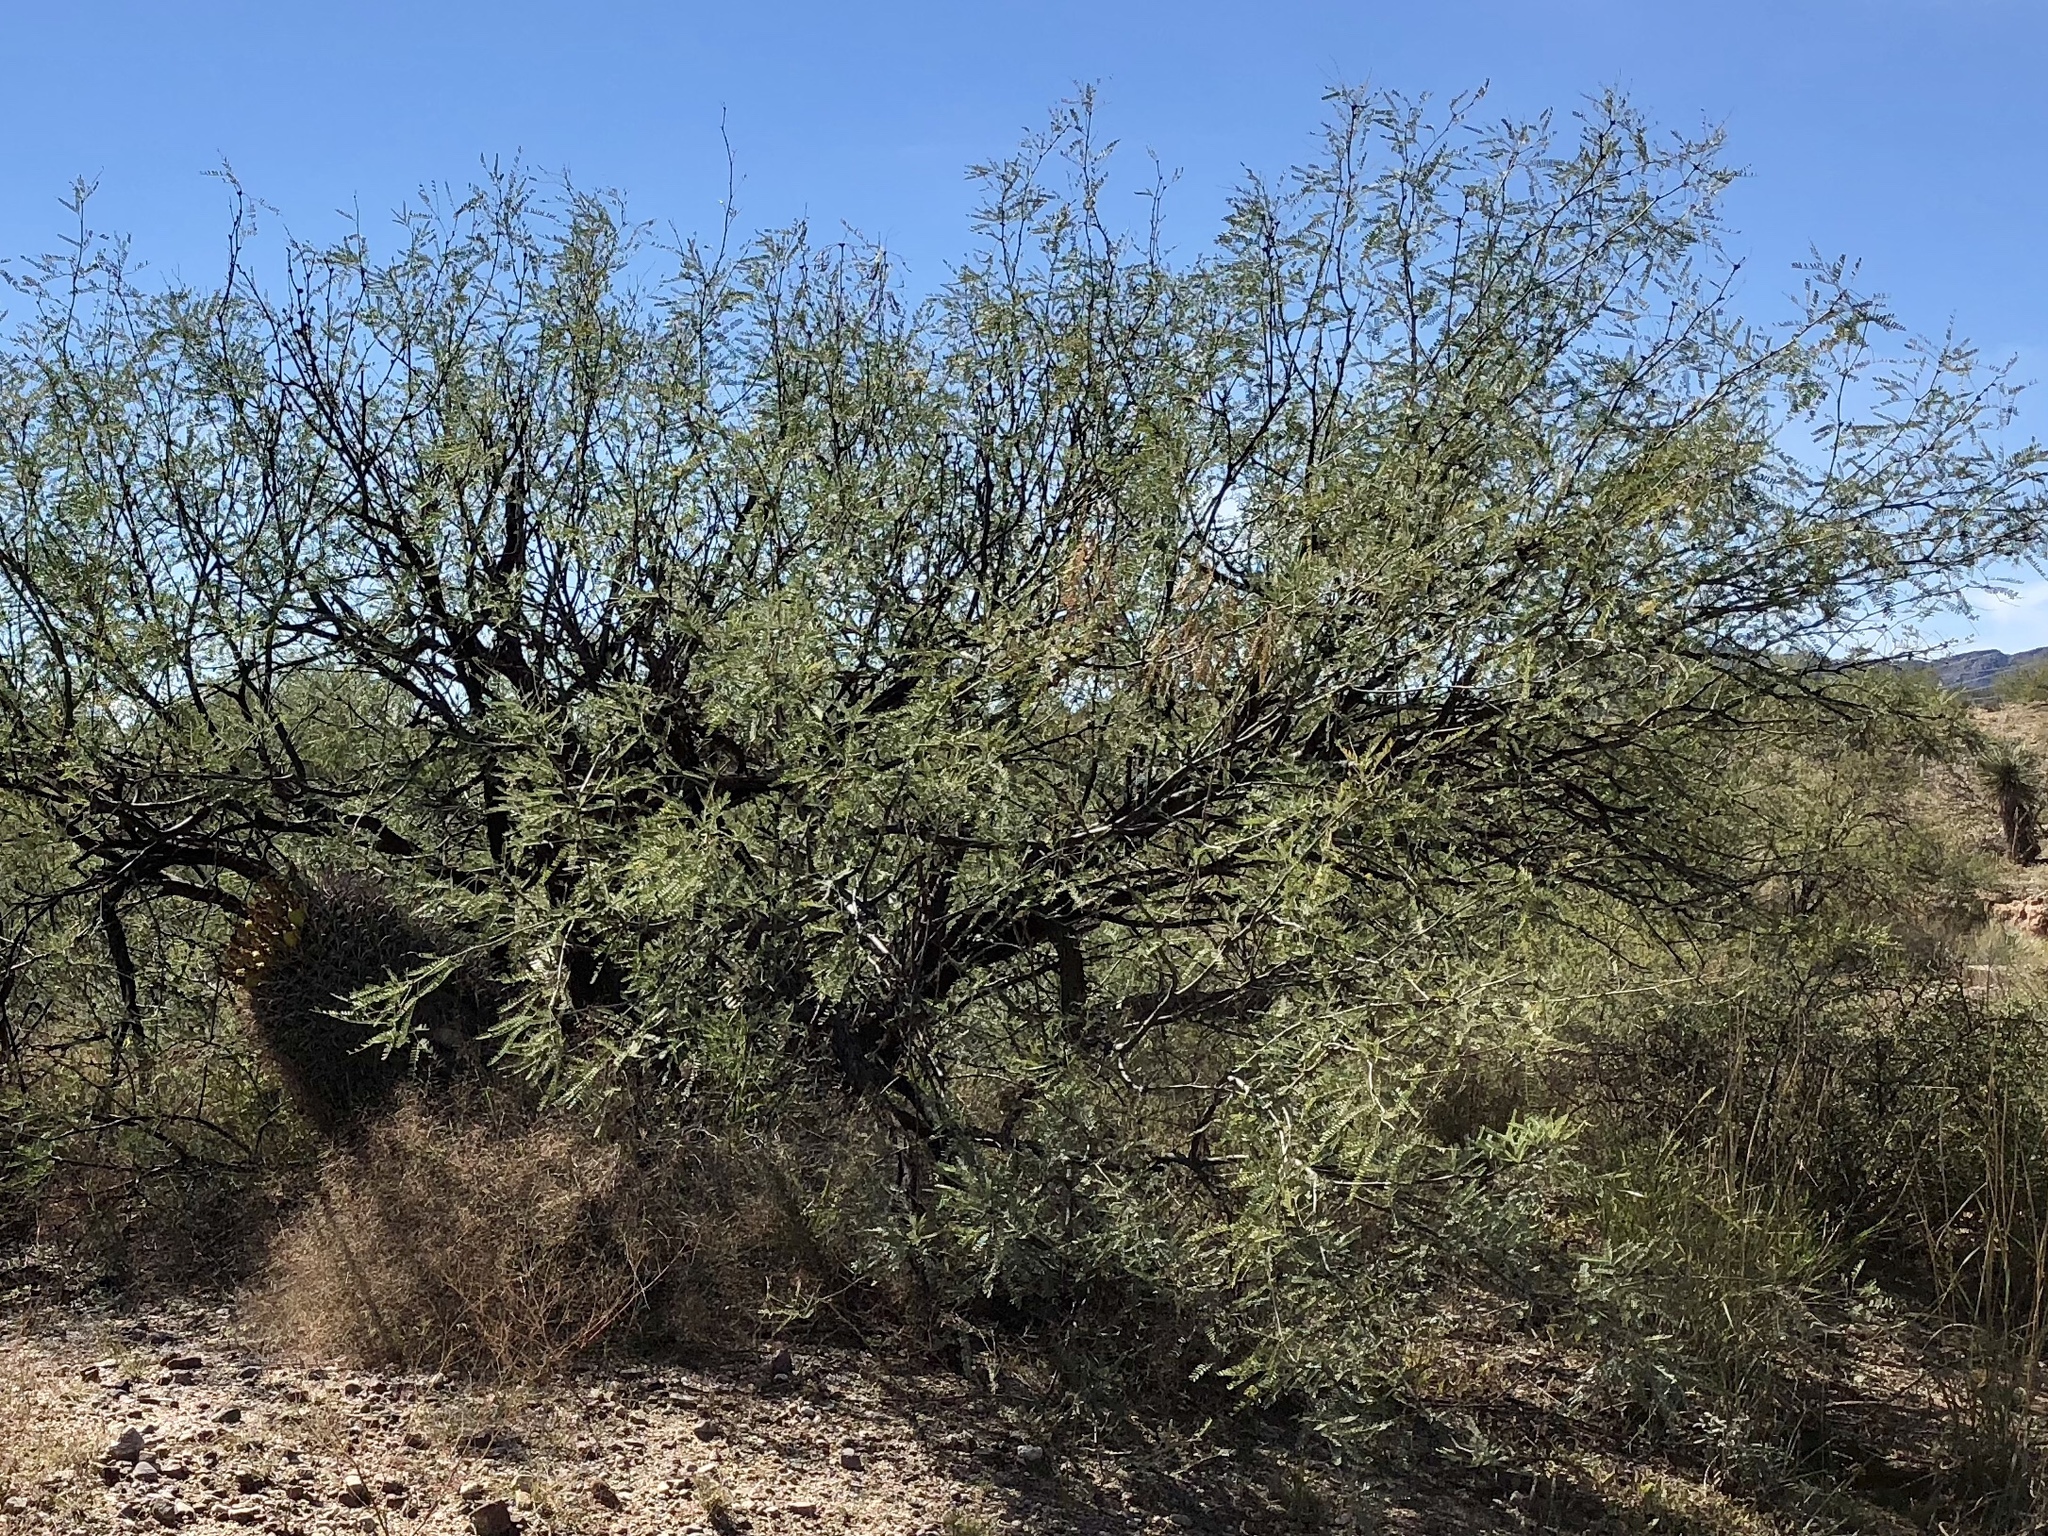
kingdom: Plantae
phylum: Tracheophyta
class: Magnoliopsida
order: Fabales
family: Fabaceae
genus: Prosopis
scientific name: Prosopis velutina
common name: Velvet mesquite
